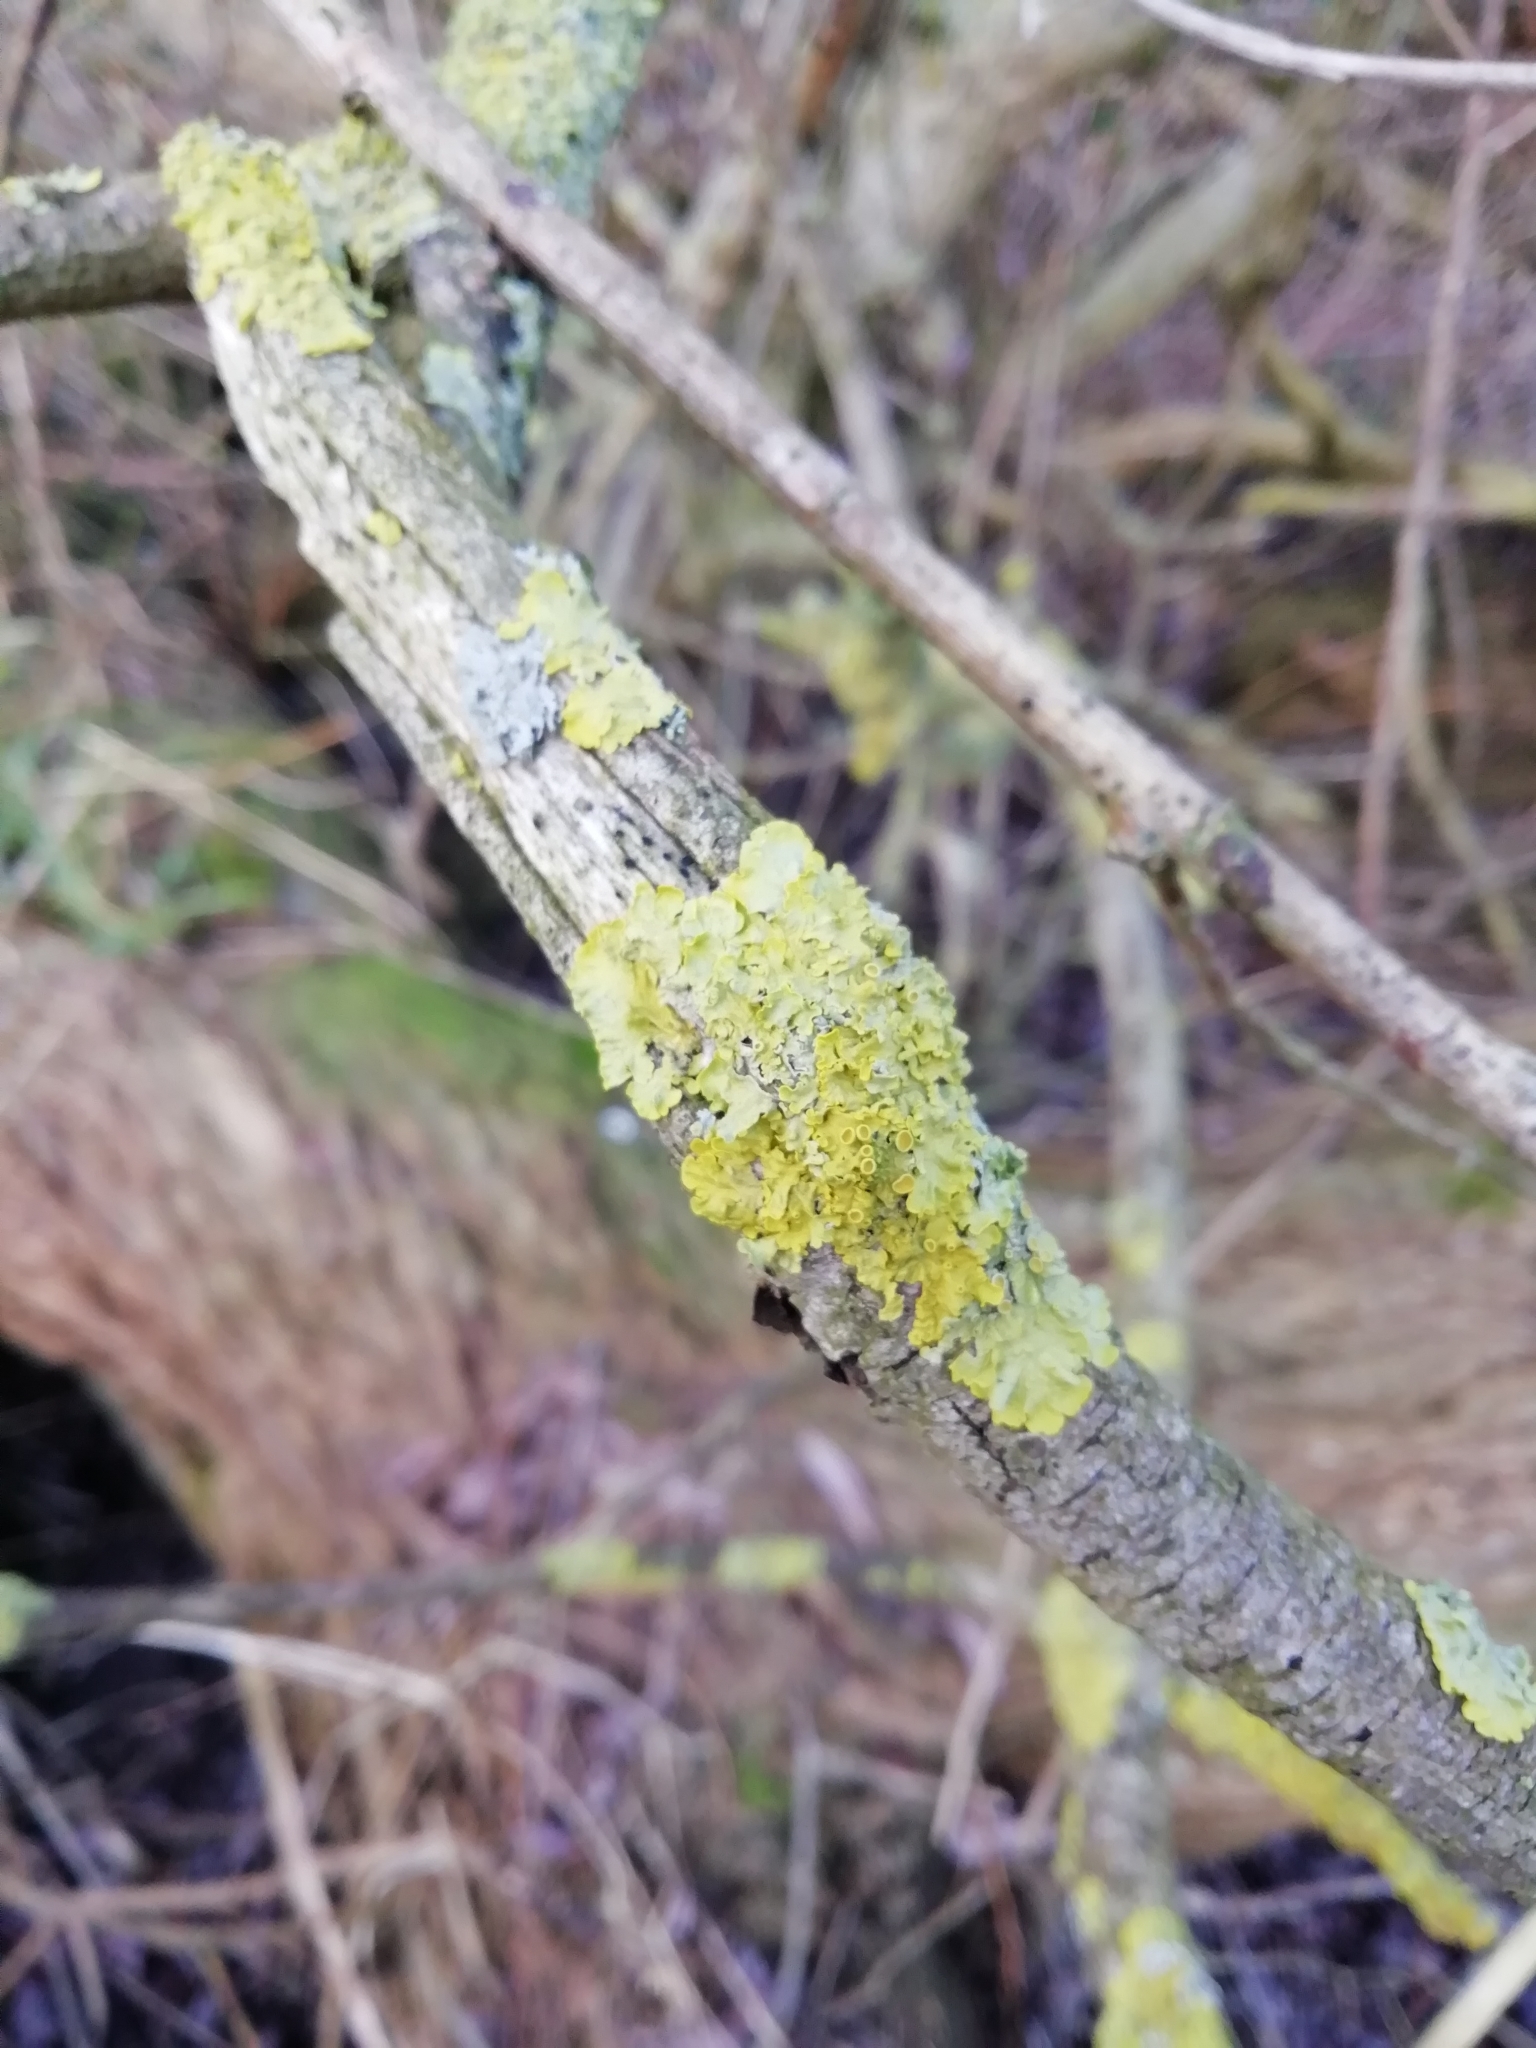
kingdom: Fungi
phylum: Ascomycota
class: Lecanoromycetes
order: Teloschistales
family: Teloschistaceae
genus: Xanthoria
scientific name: Xanthoria parietina
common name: Common orange lichen
